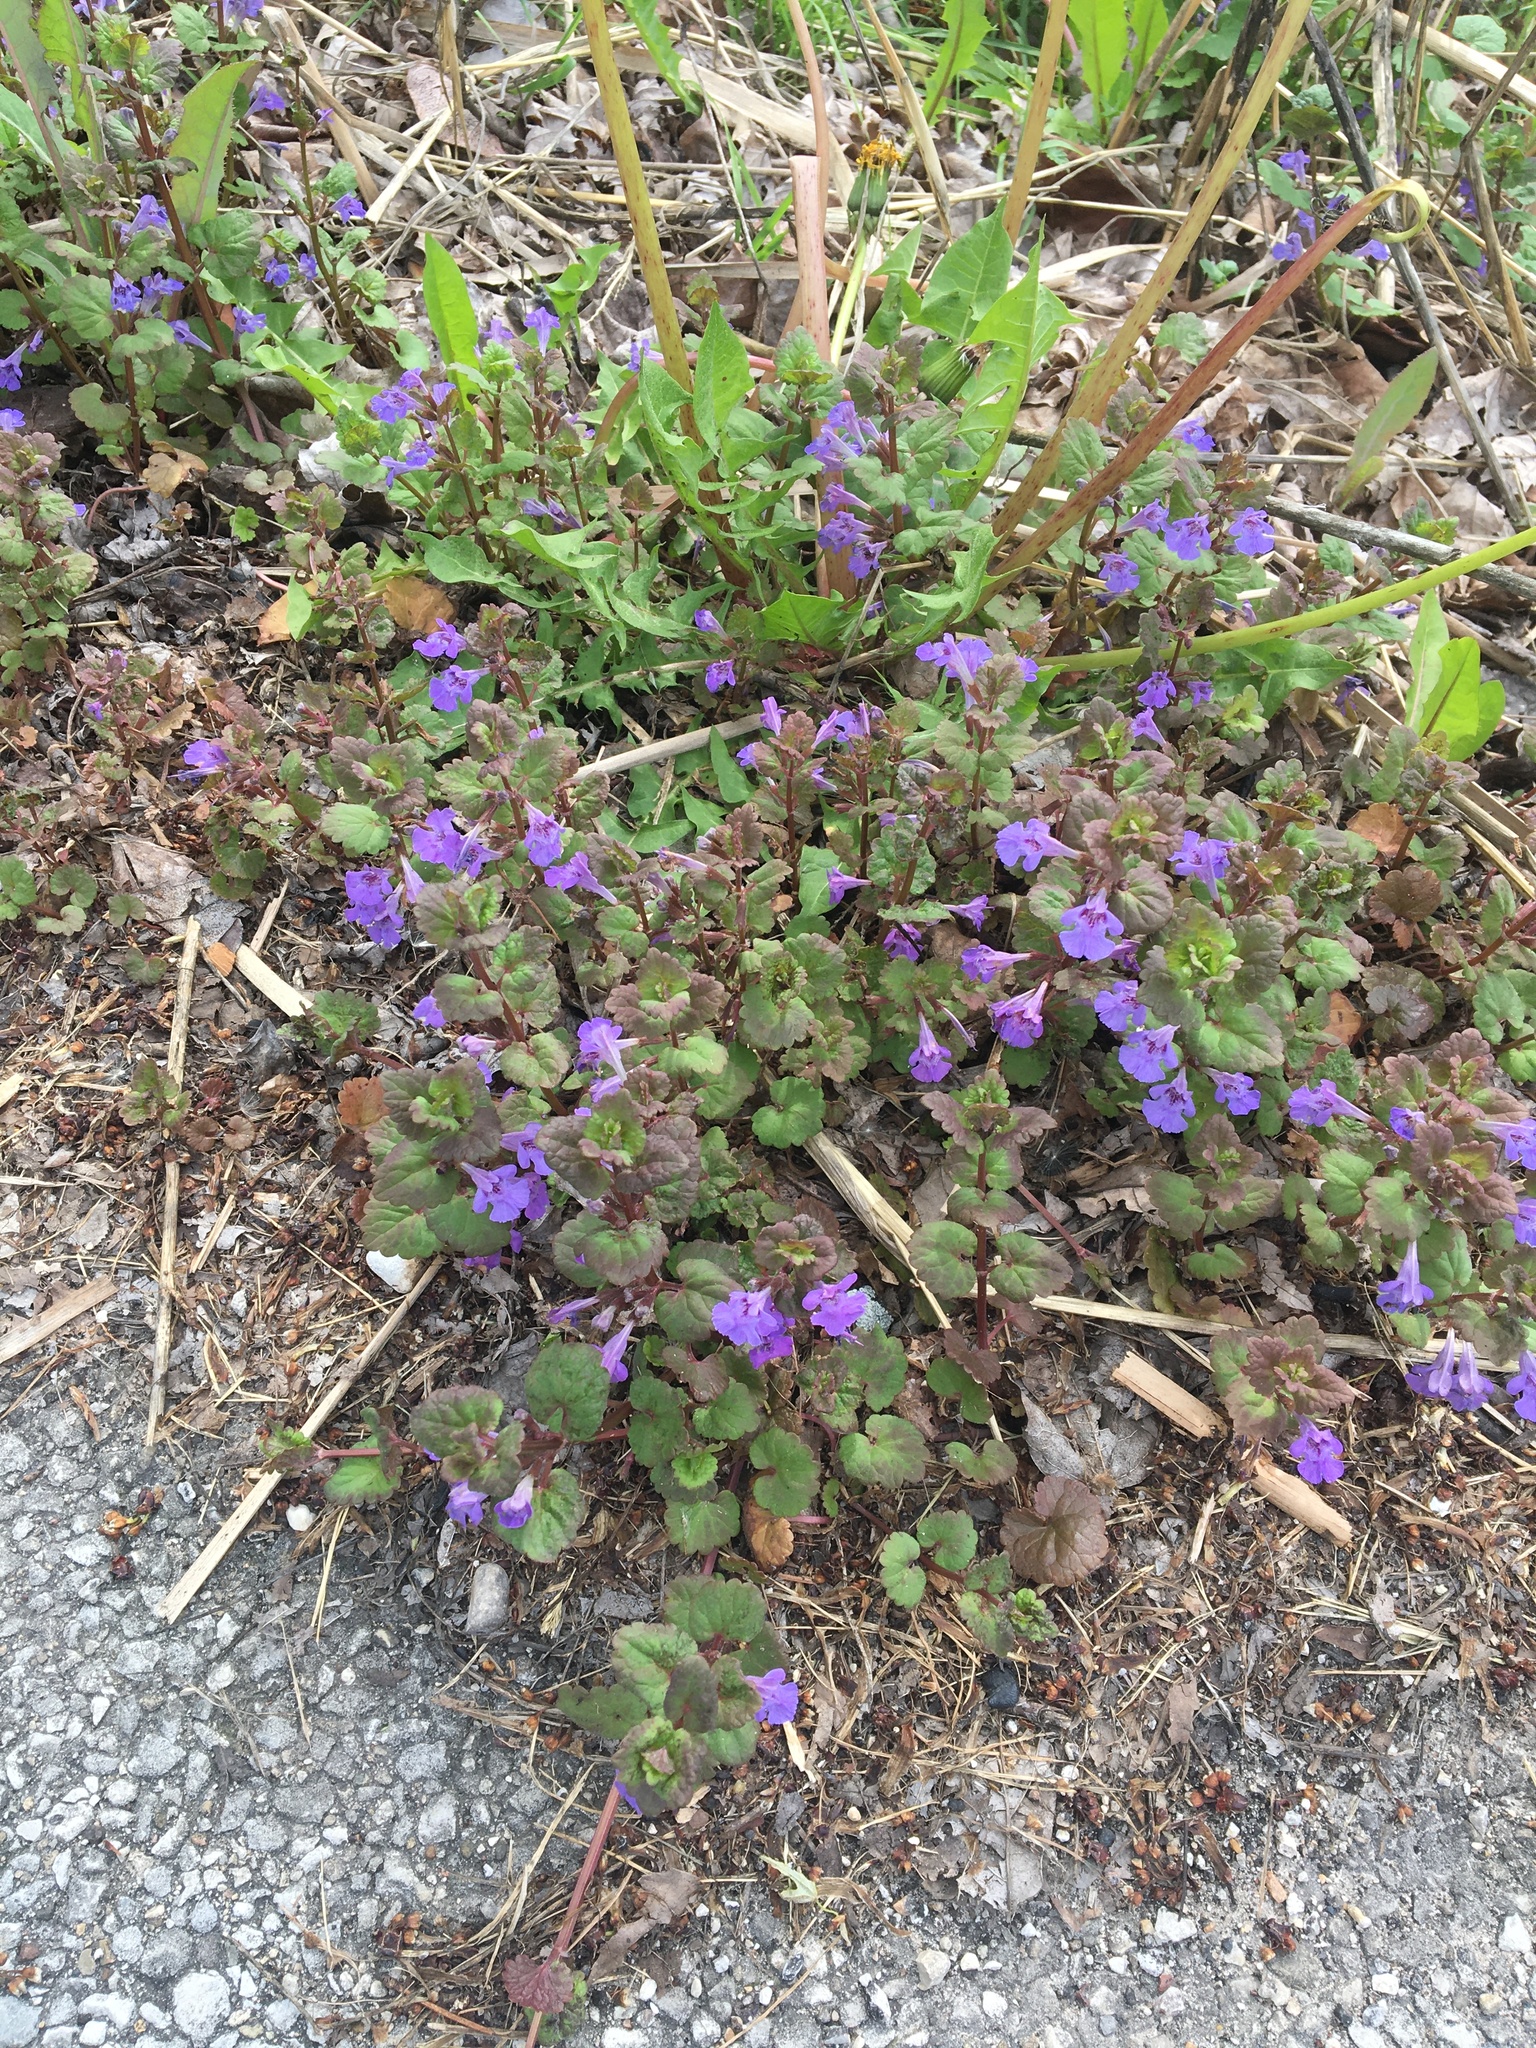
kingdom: Plantae
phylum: Tracheophyta
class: Magnoliopsida
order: Lamiales
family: Lamiaceae
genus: Glechoma
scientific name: Glechoma hederacea
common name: Ground ivy
